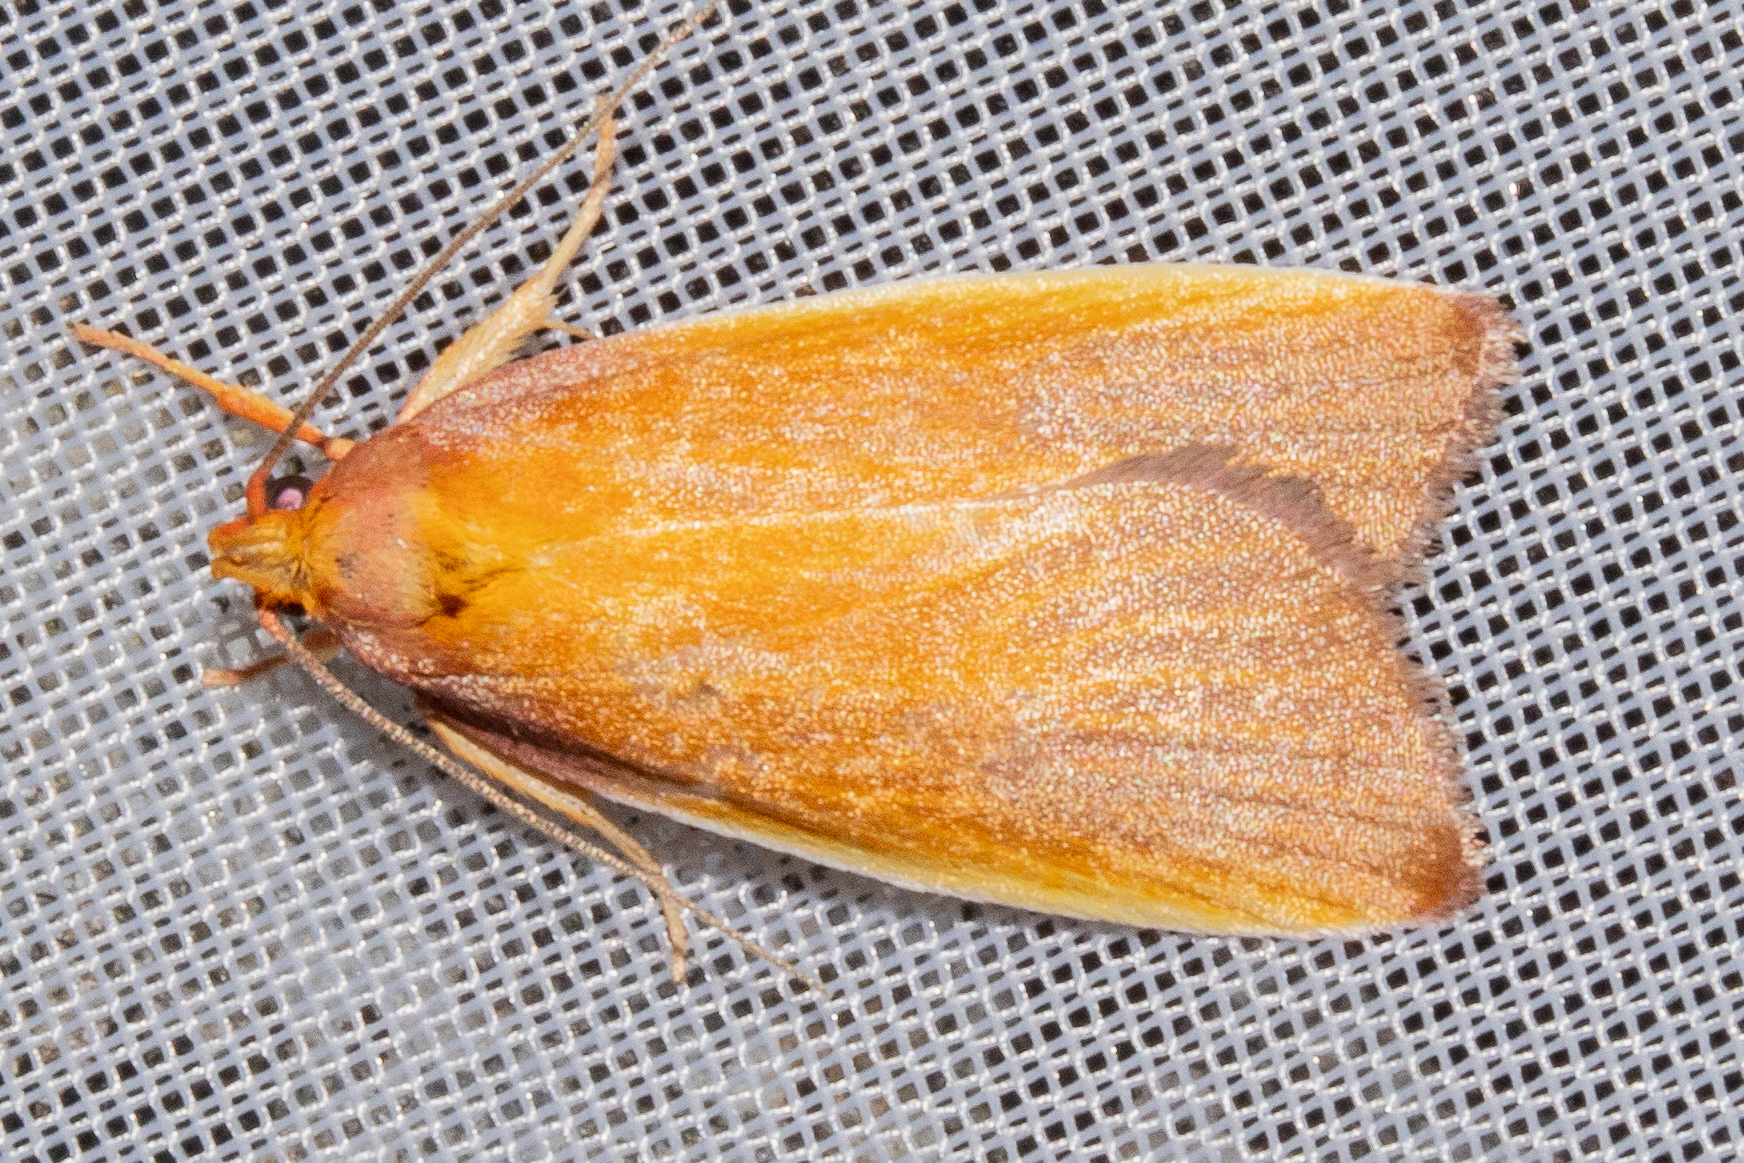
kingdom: Animalia
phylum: Arthropoda
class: Insecta
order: Lepidoptera
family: Oecophoridae
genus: Proteodes
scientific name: Proteodes smithi
